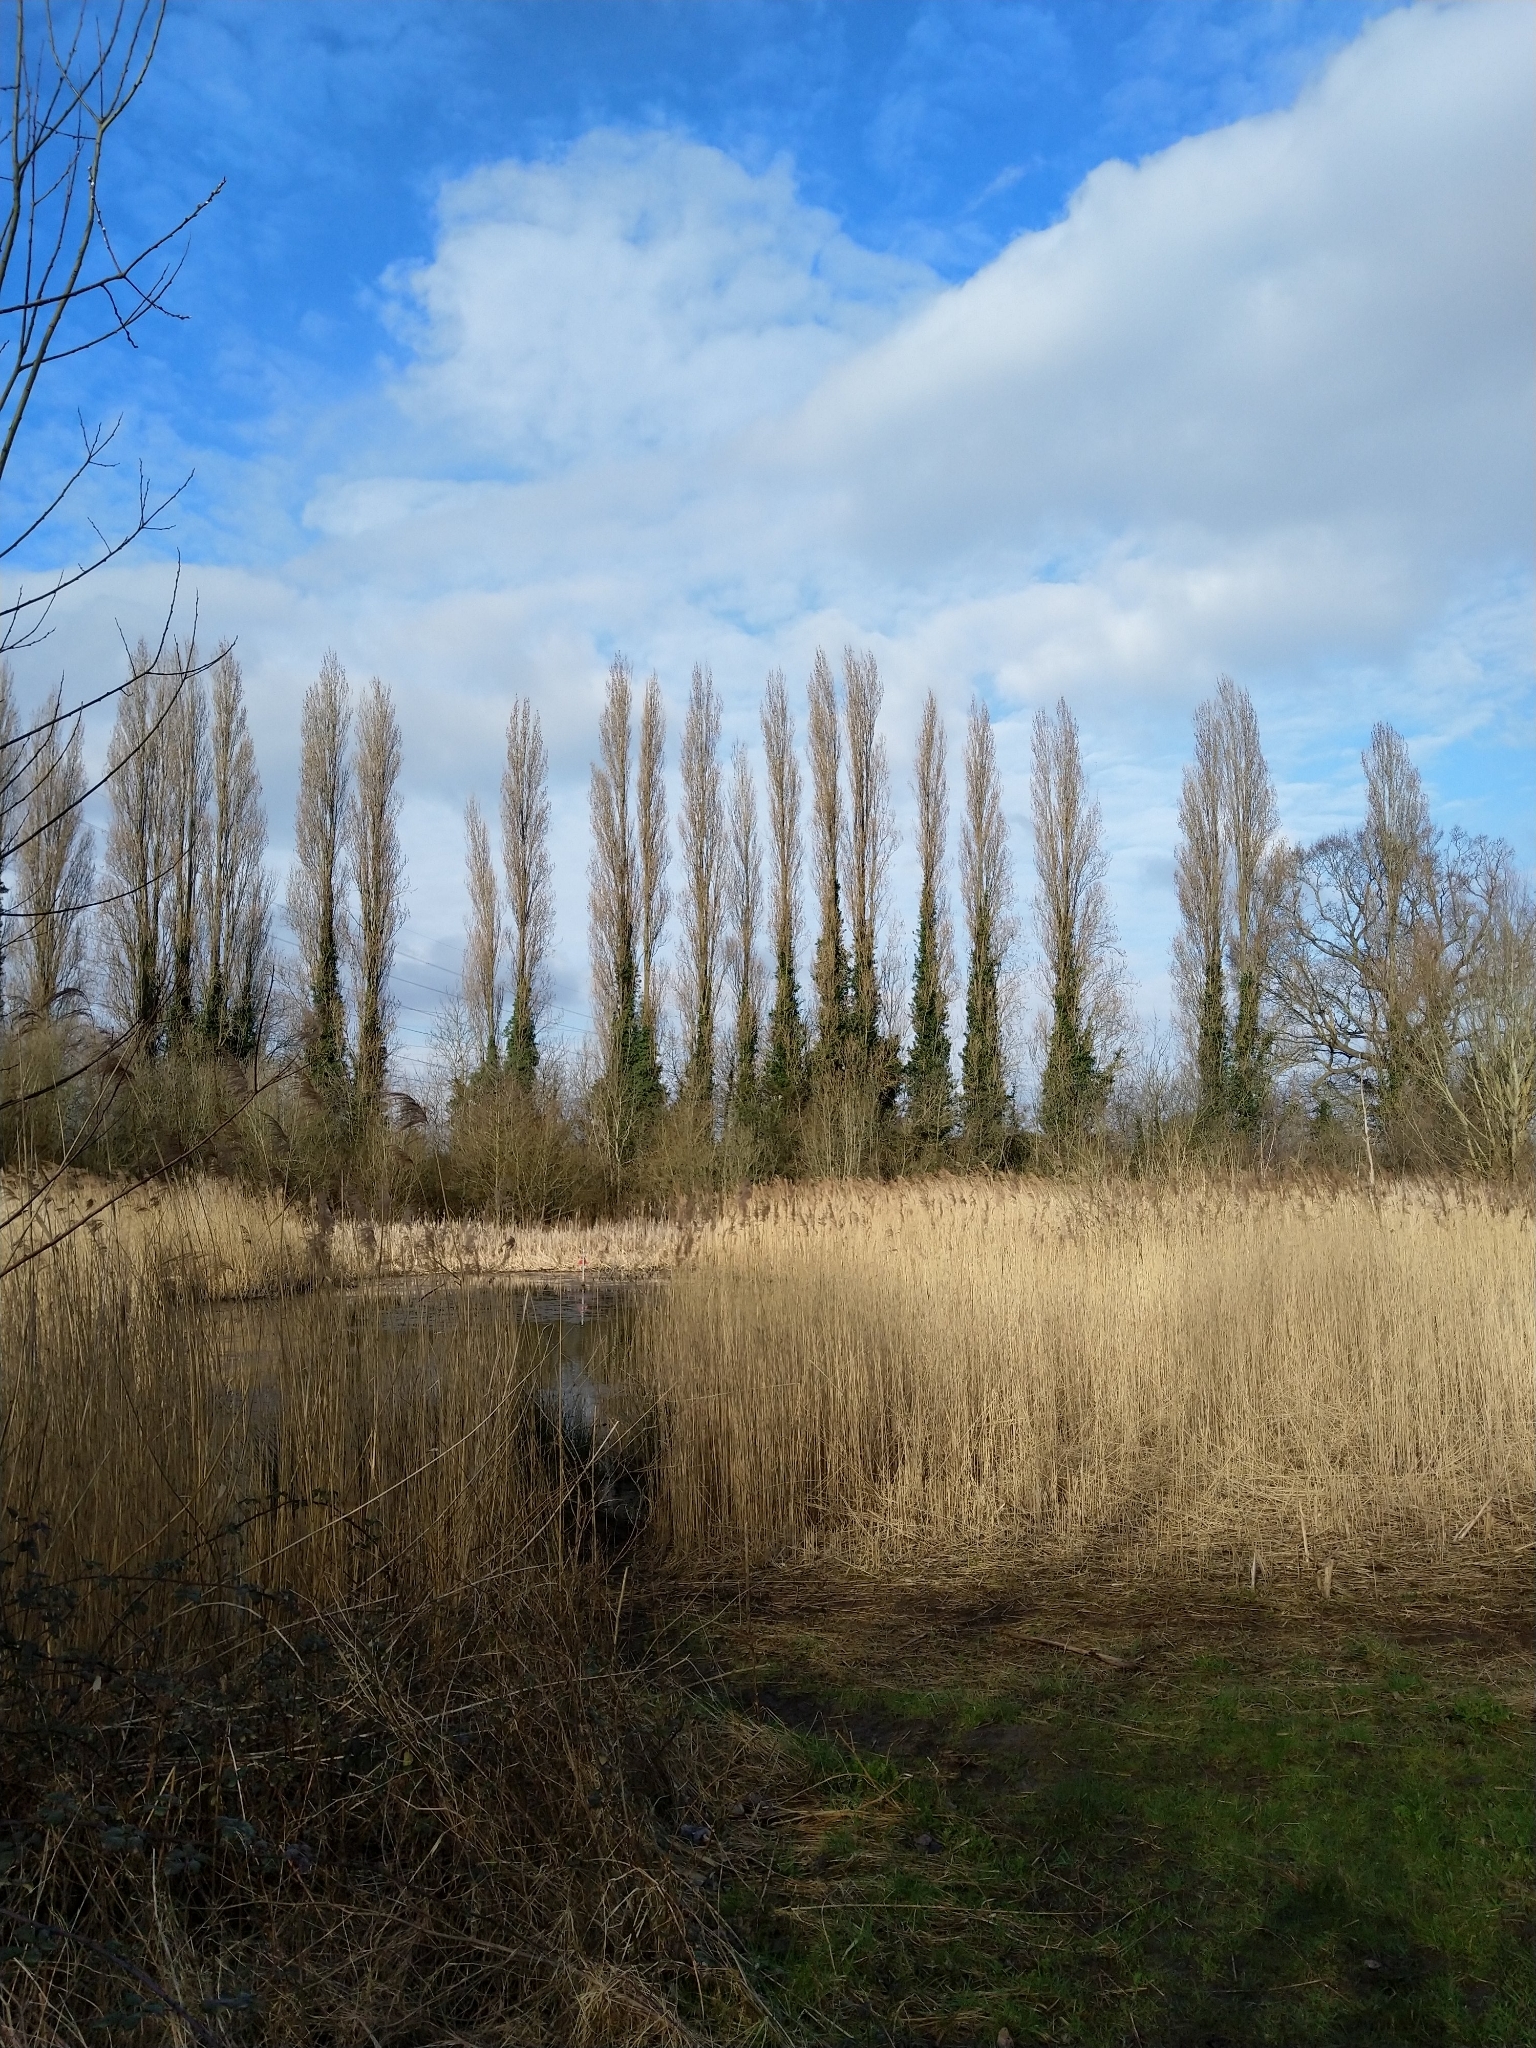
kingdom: Plantae
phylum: Tracheophyta
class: Magnoliopsida
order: Malpighiales
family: Salicaceae
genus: Populus
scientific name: Populus nigra
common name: Black poplar
